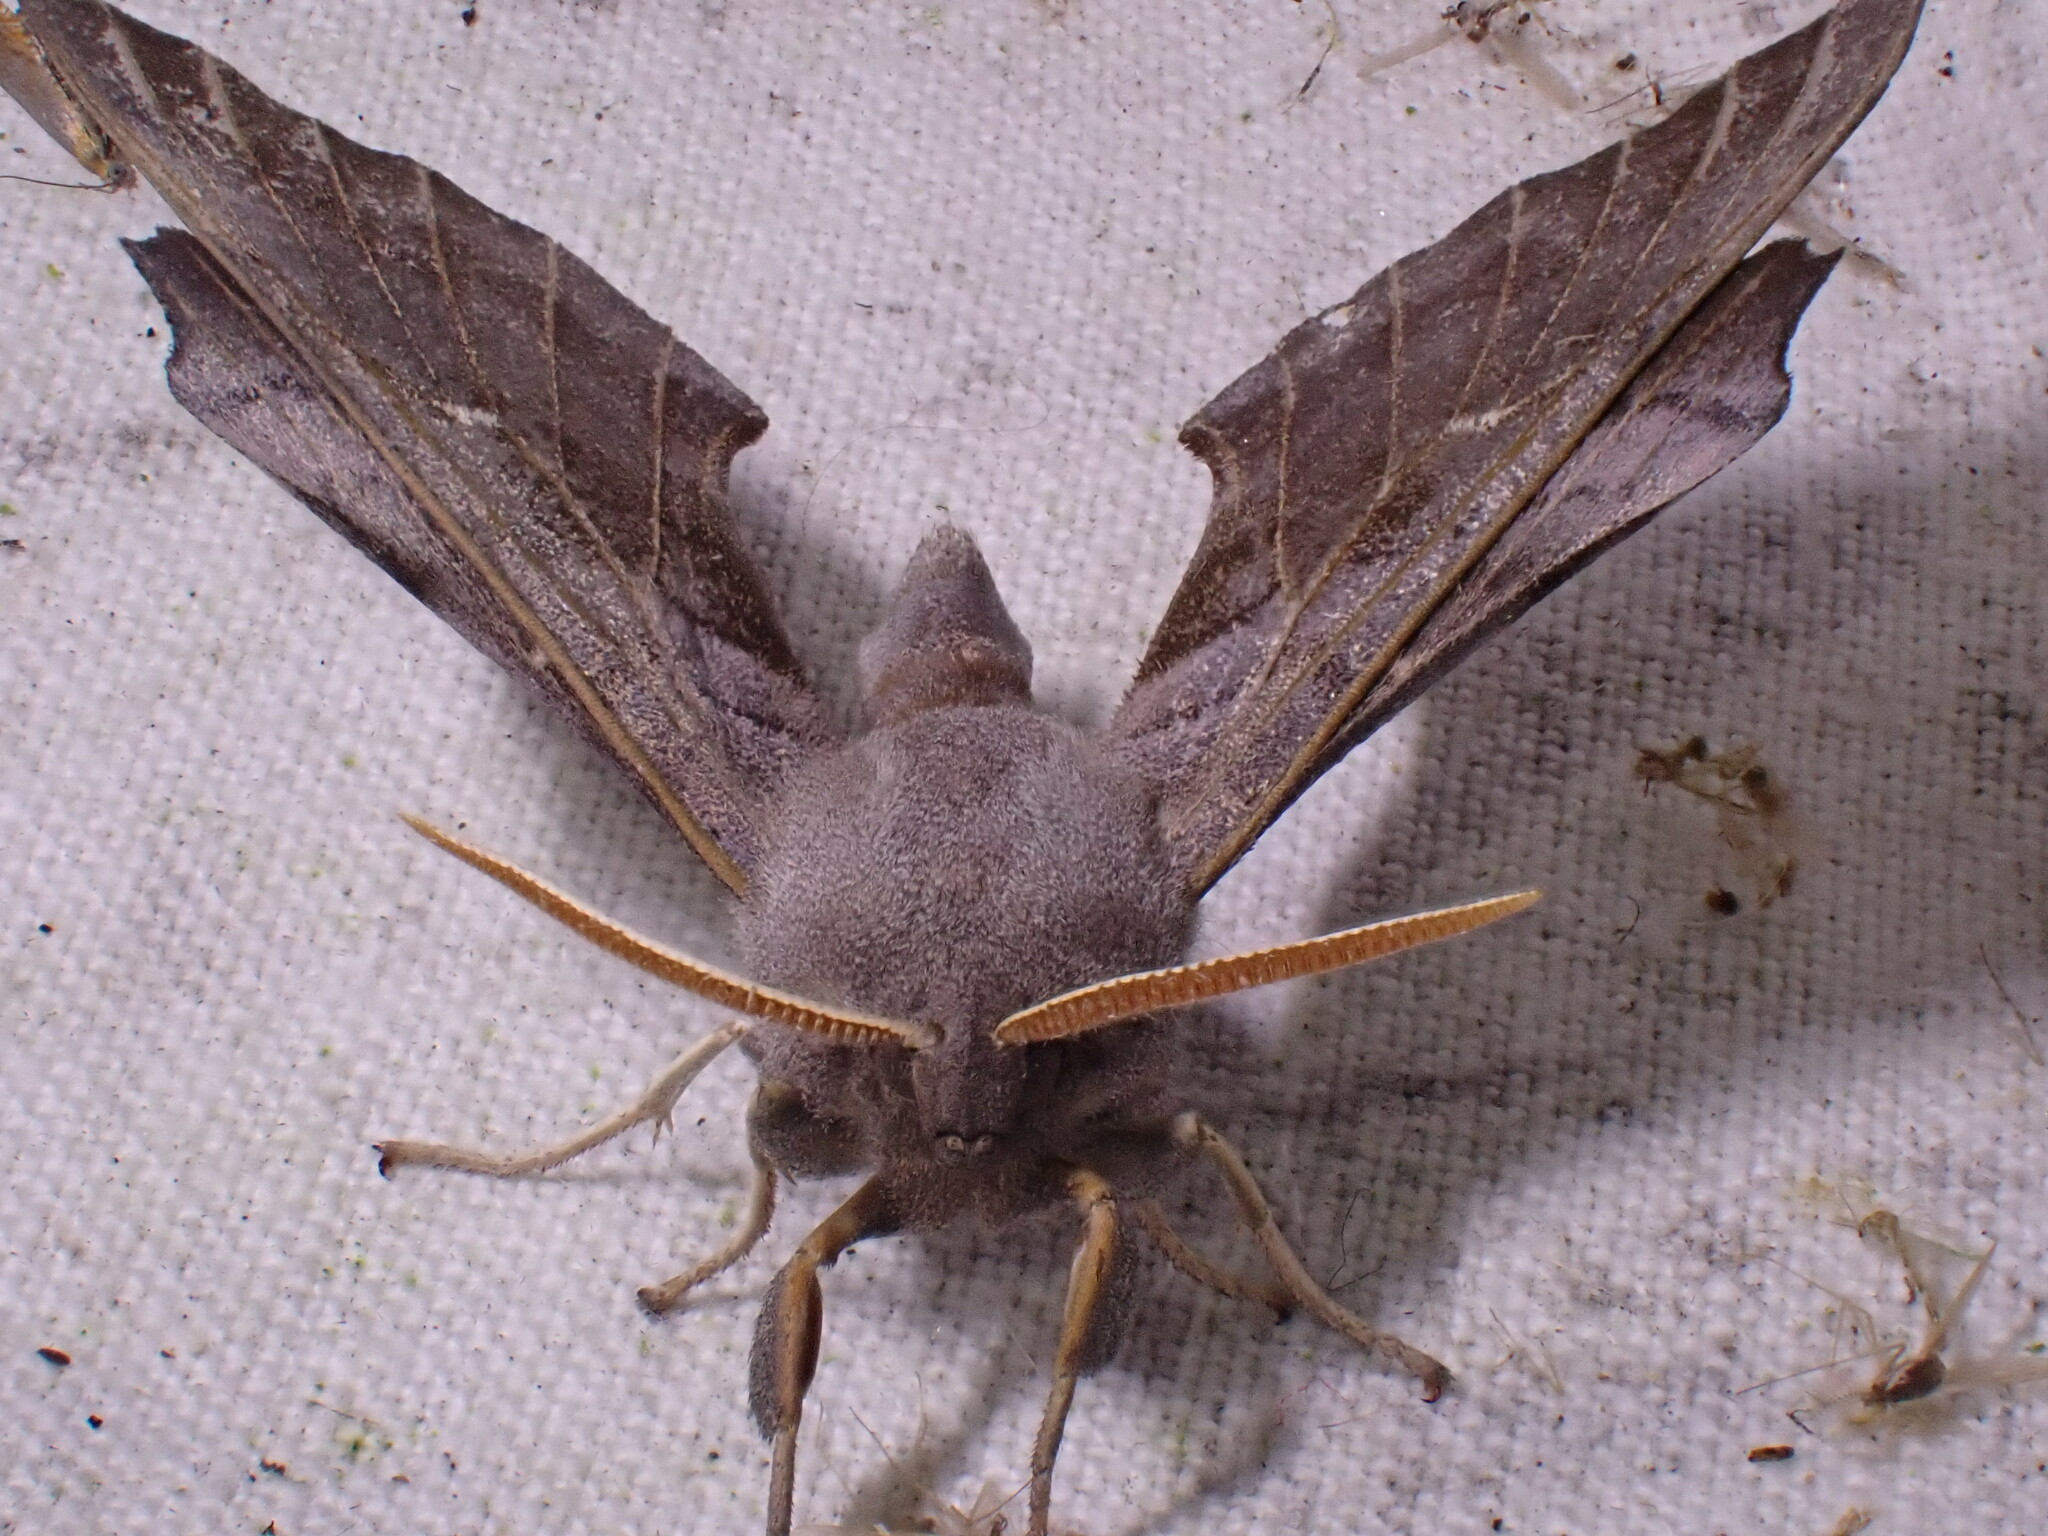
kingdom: Animalia
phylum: Arthropoda
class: Insecta
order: Lepidoptera
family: Sphingidae
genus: Laothoe
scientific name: Laothoe populi
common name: Poplar hawk-moth
